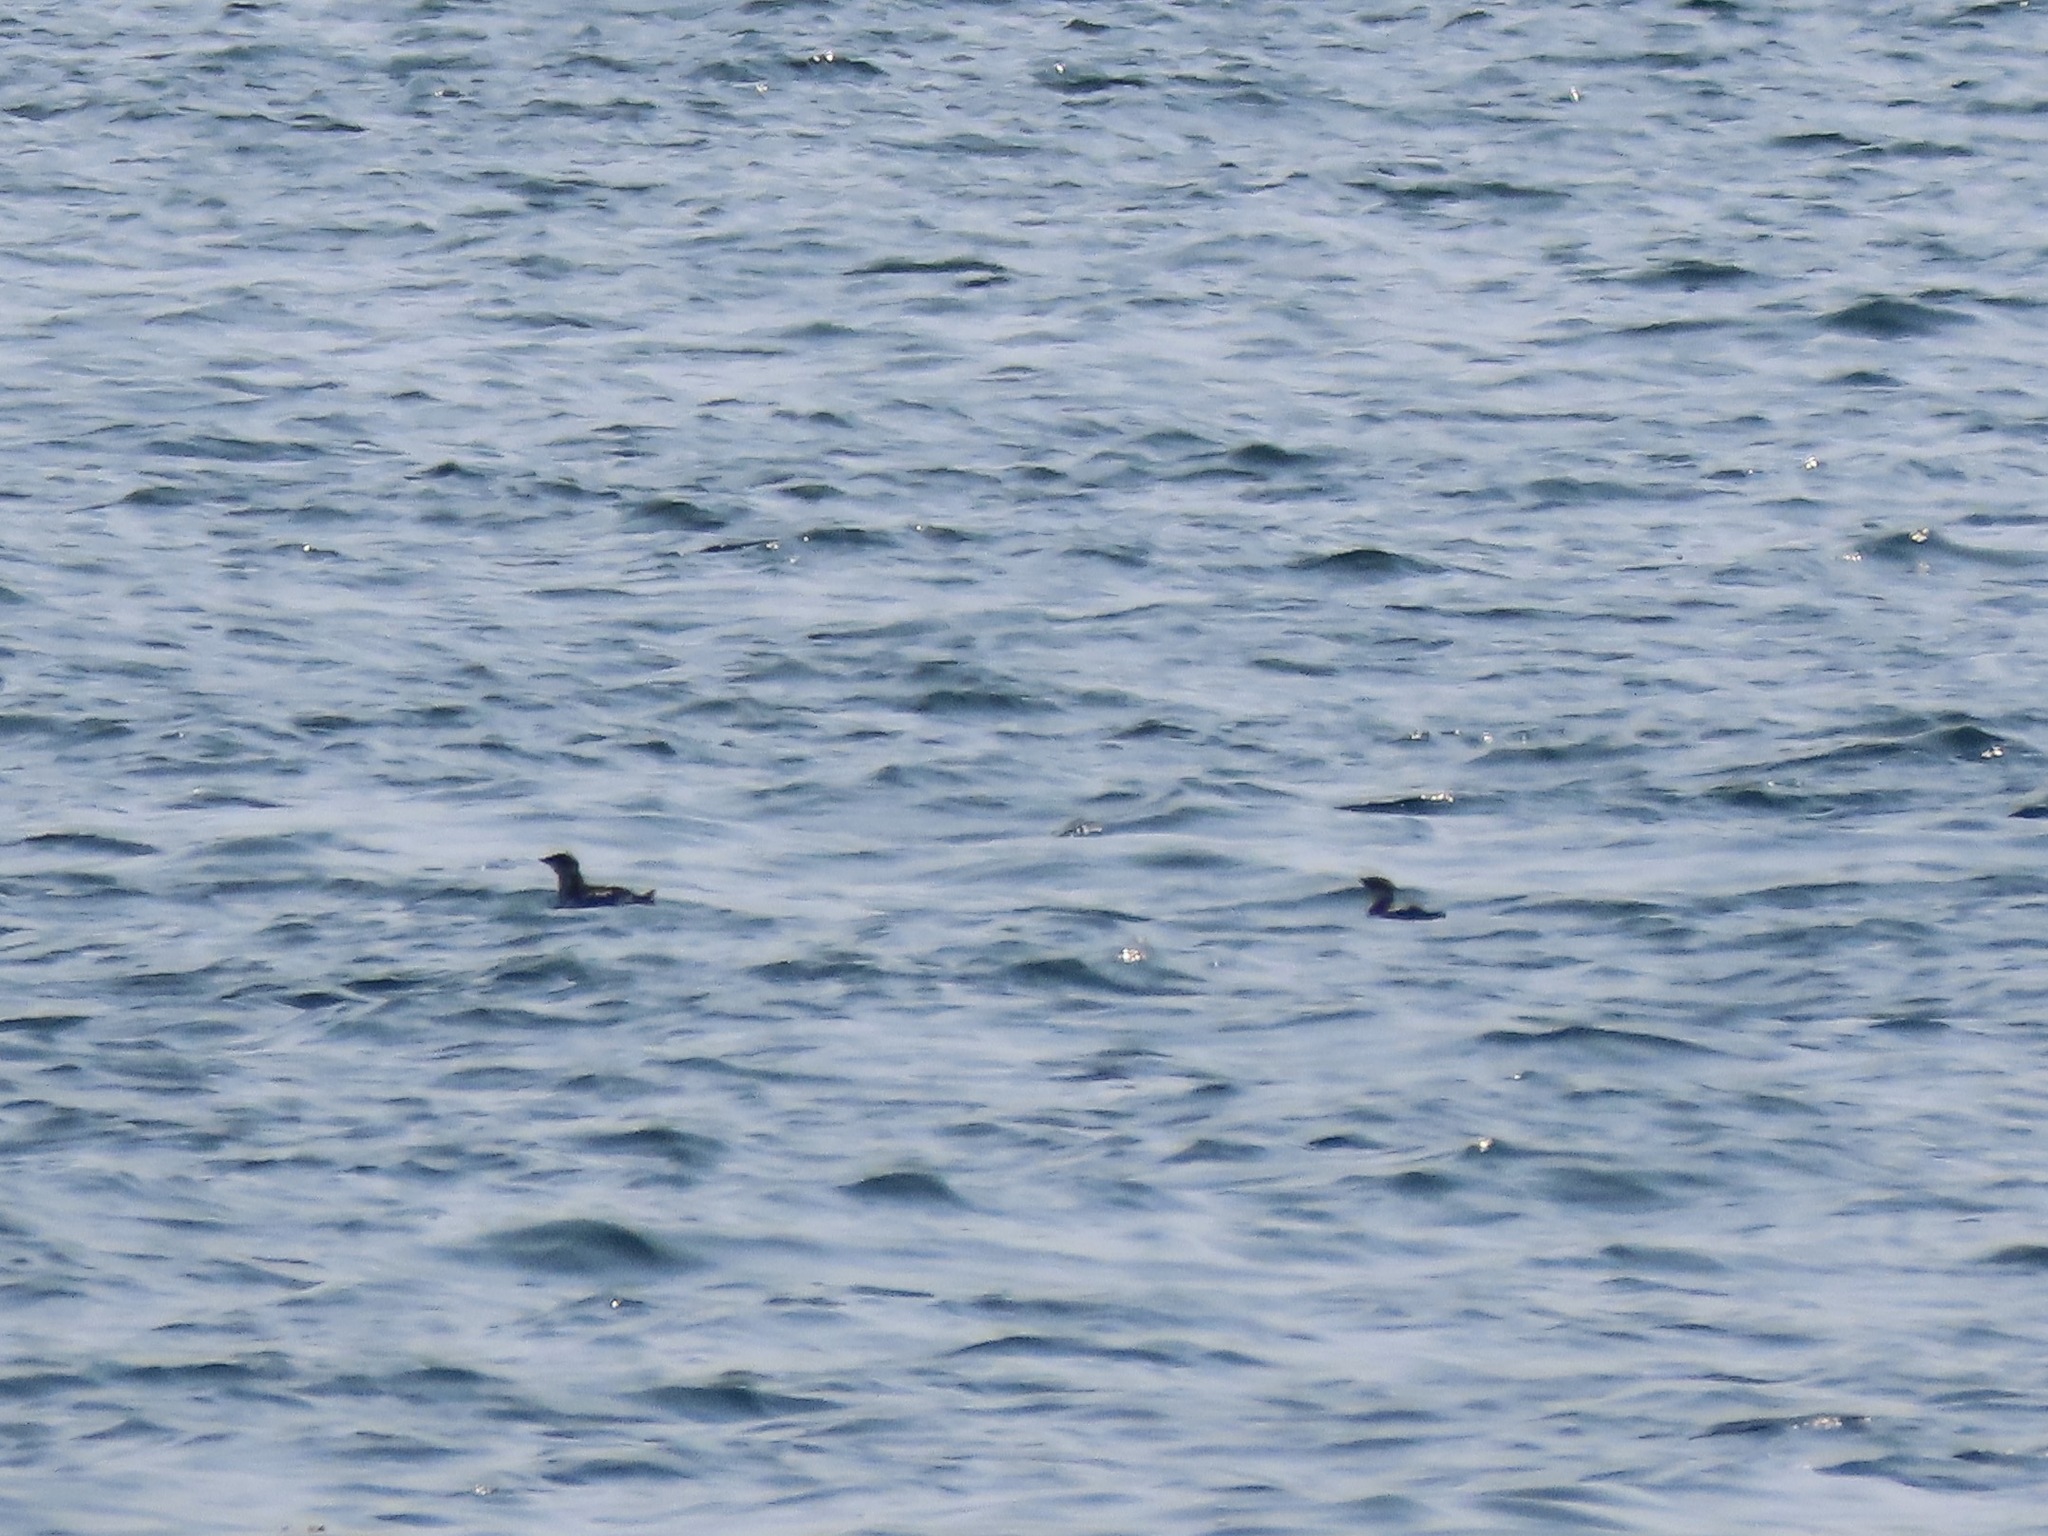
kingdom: Animalia
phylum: Chordata
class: Aves
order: Charadriiformes
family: Alcidae
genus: Brachyramphus
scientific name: Brachyramphus marmoratus
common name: Marbled murrelet
